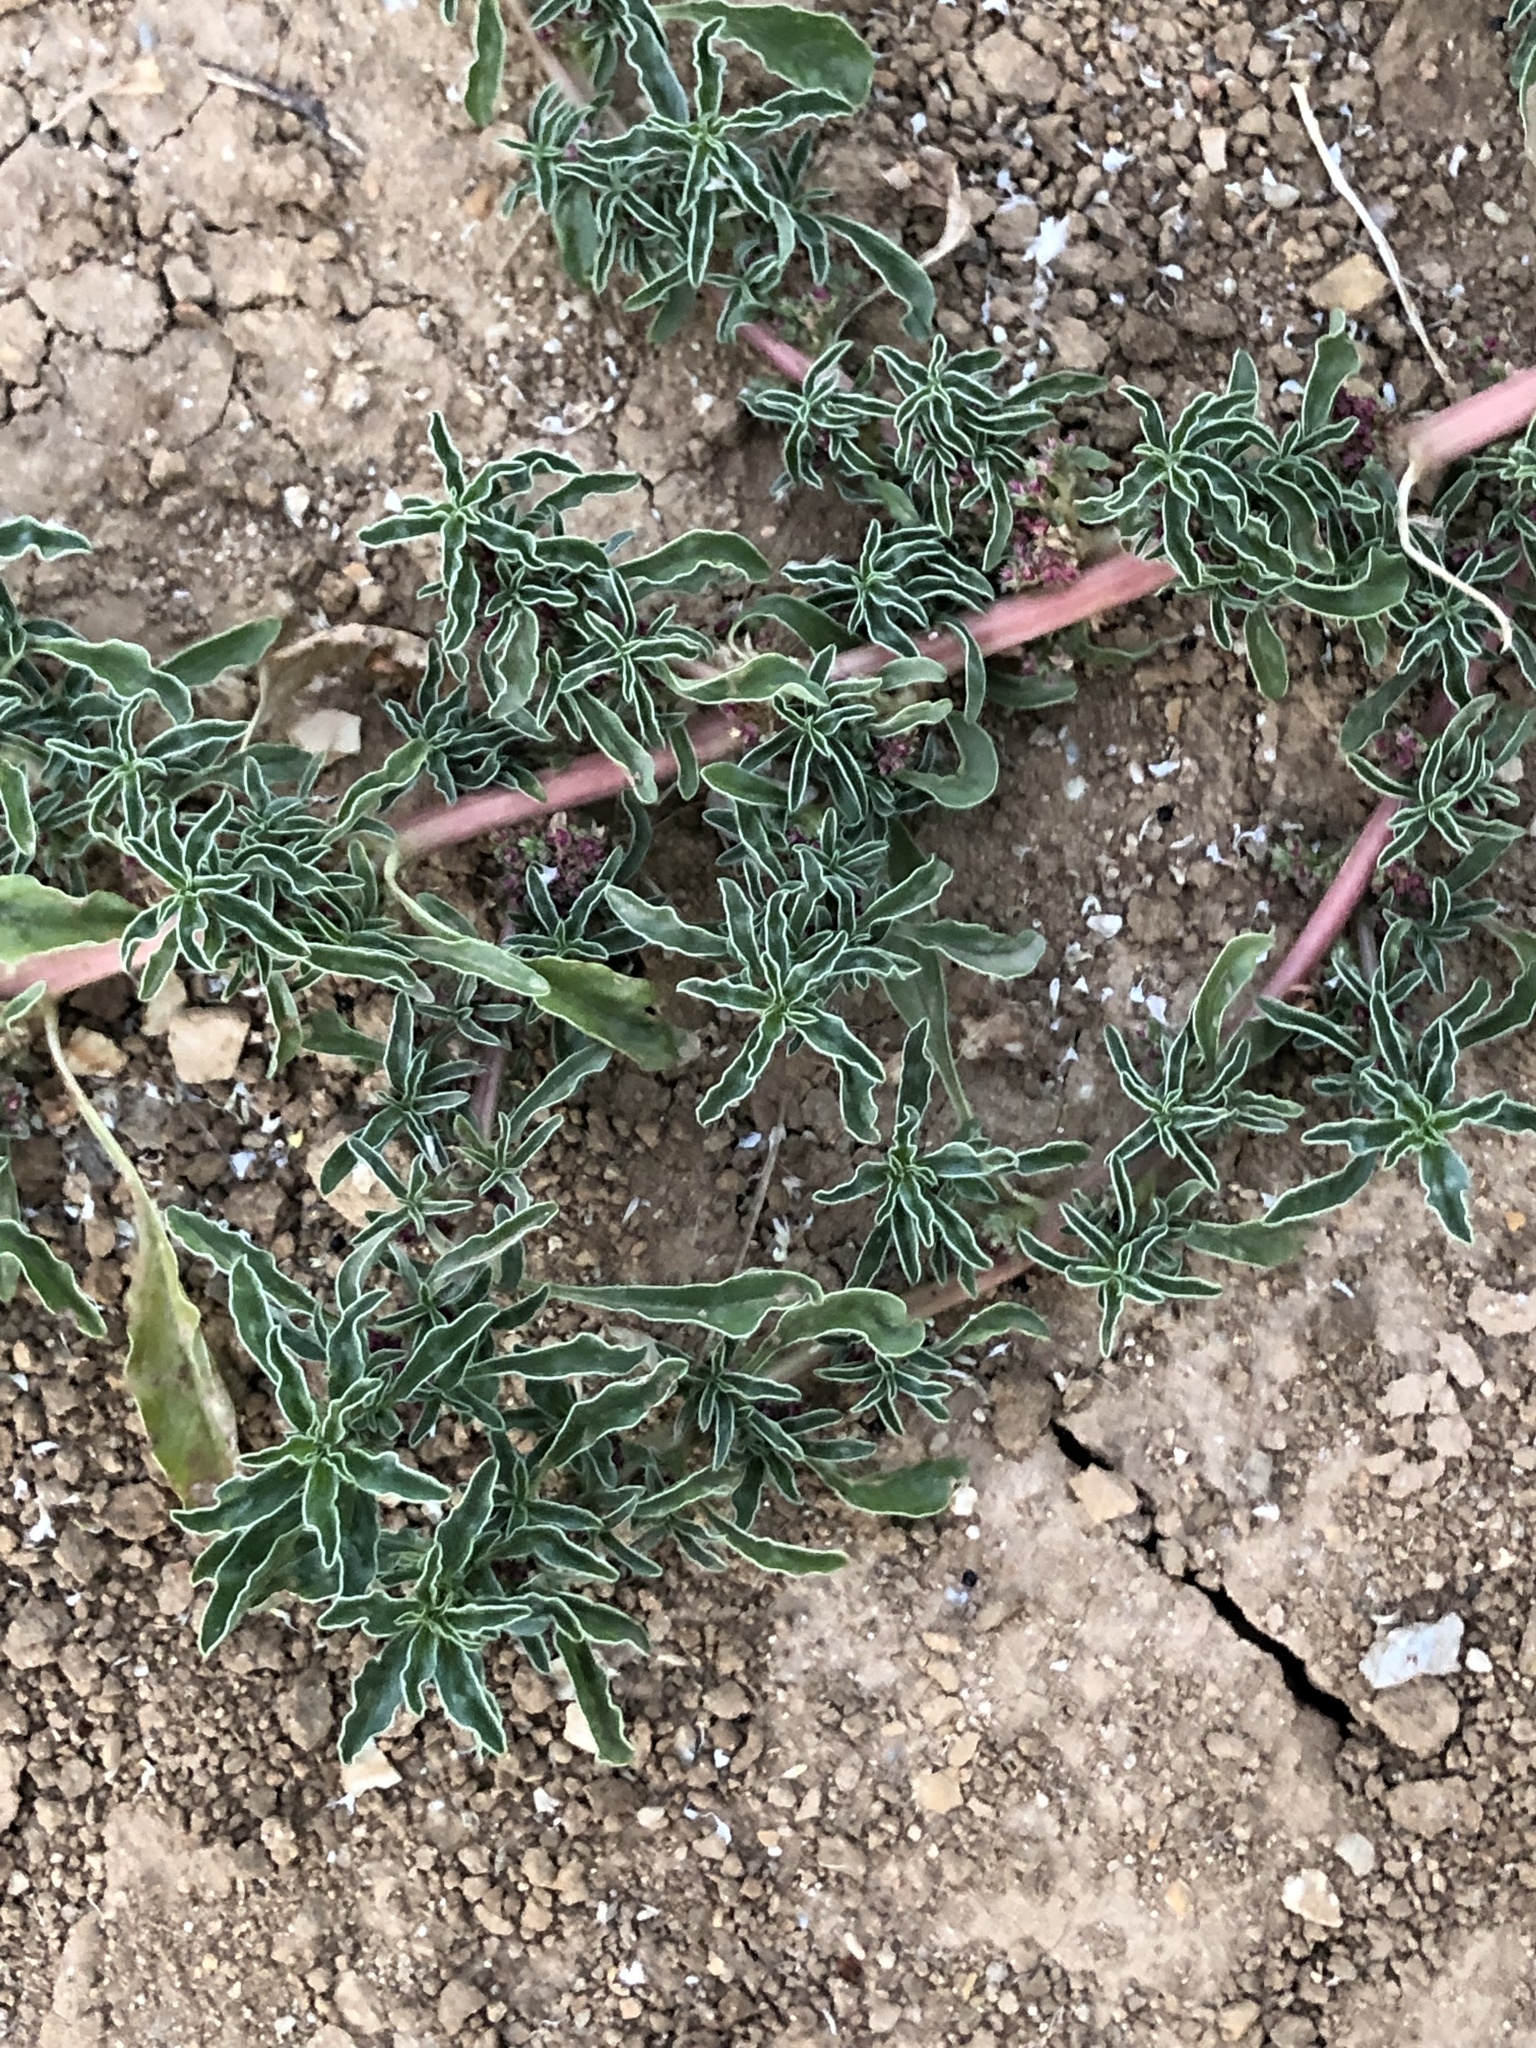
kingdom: Plantae
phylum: Tracheophyta
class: Magnoliopsida
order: Caryophyllales
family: Amaranthaceae
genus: Amaranthus
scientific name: Amaranthus blitoides
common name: Prostrate pigweed
